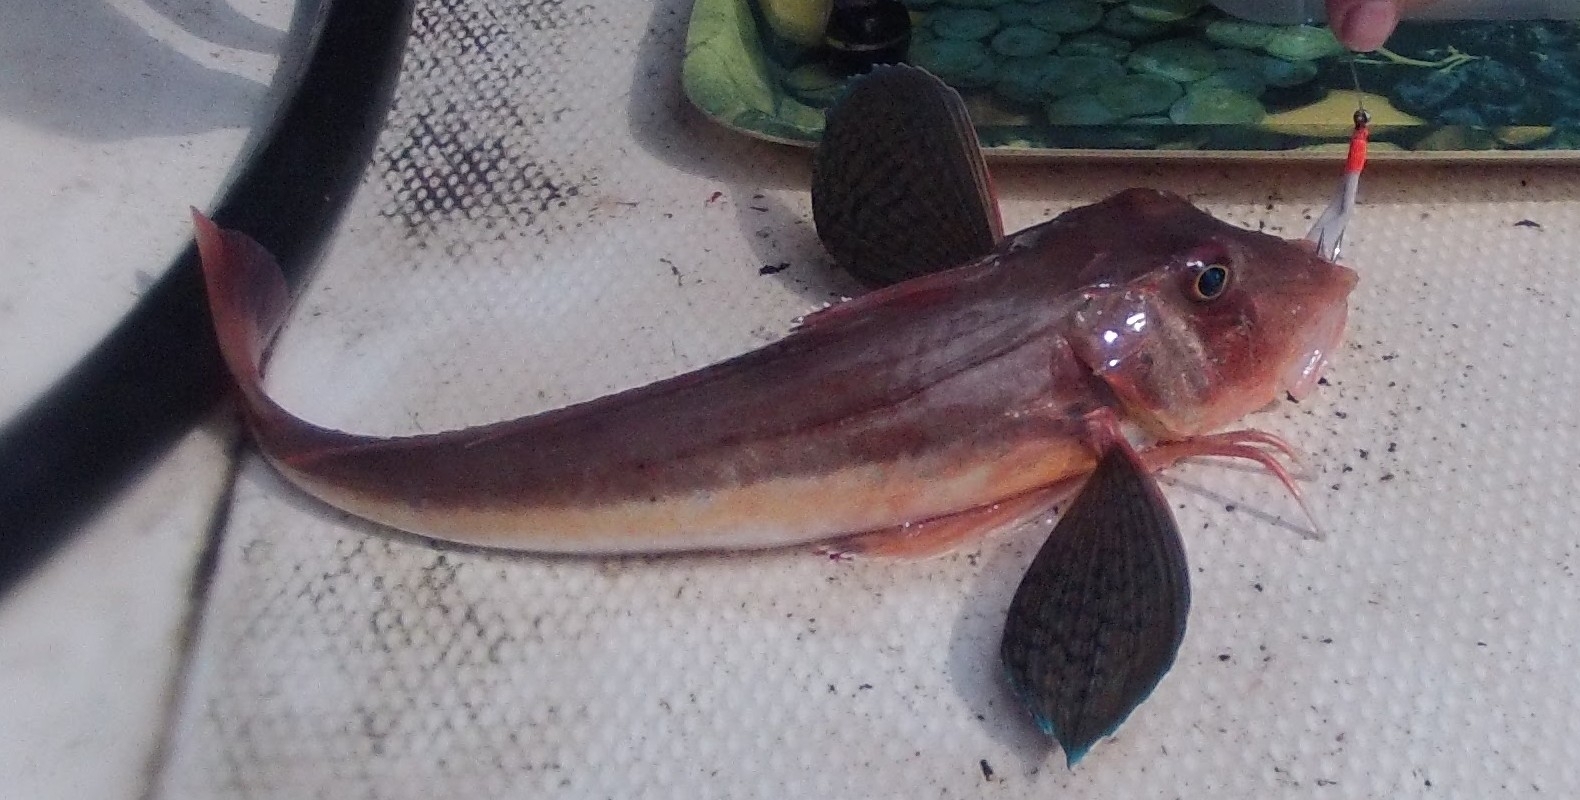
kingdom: Animalia
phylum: Chordata
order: Scorpaeniformes
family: Triglidae
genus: Chelidonichthys
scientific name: Chelidonichthys lucerna
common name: Tub gurnard
